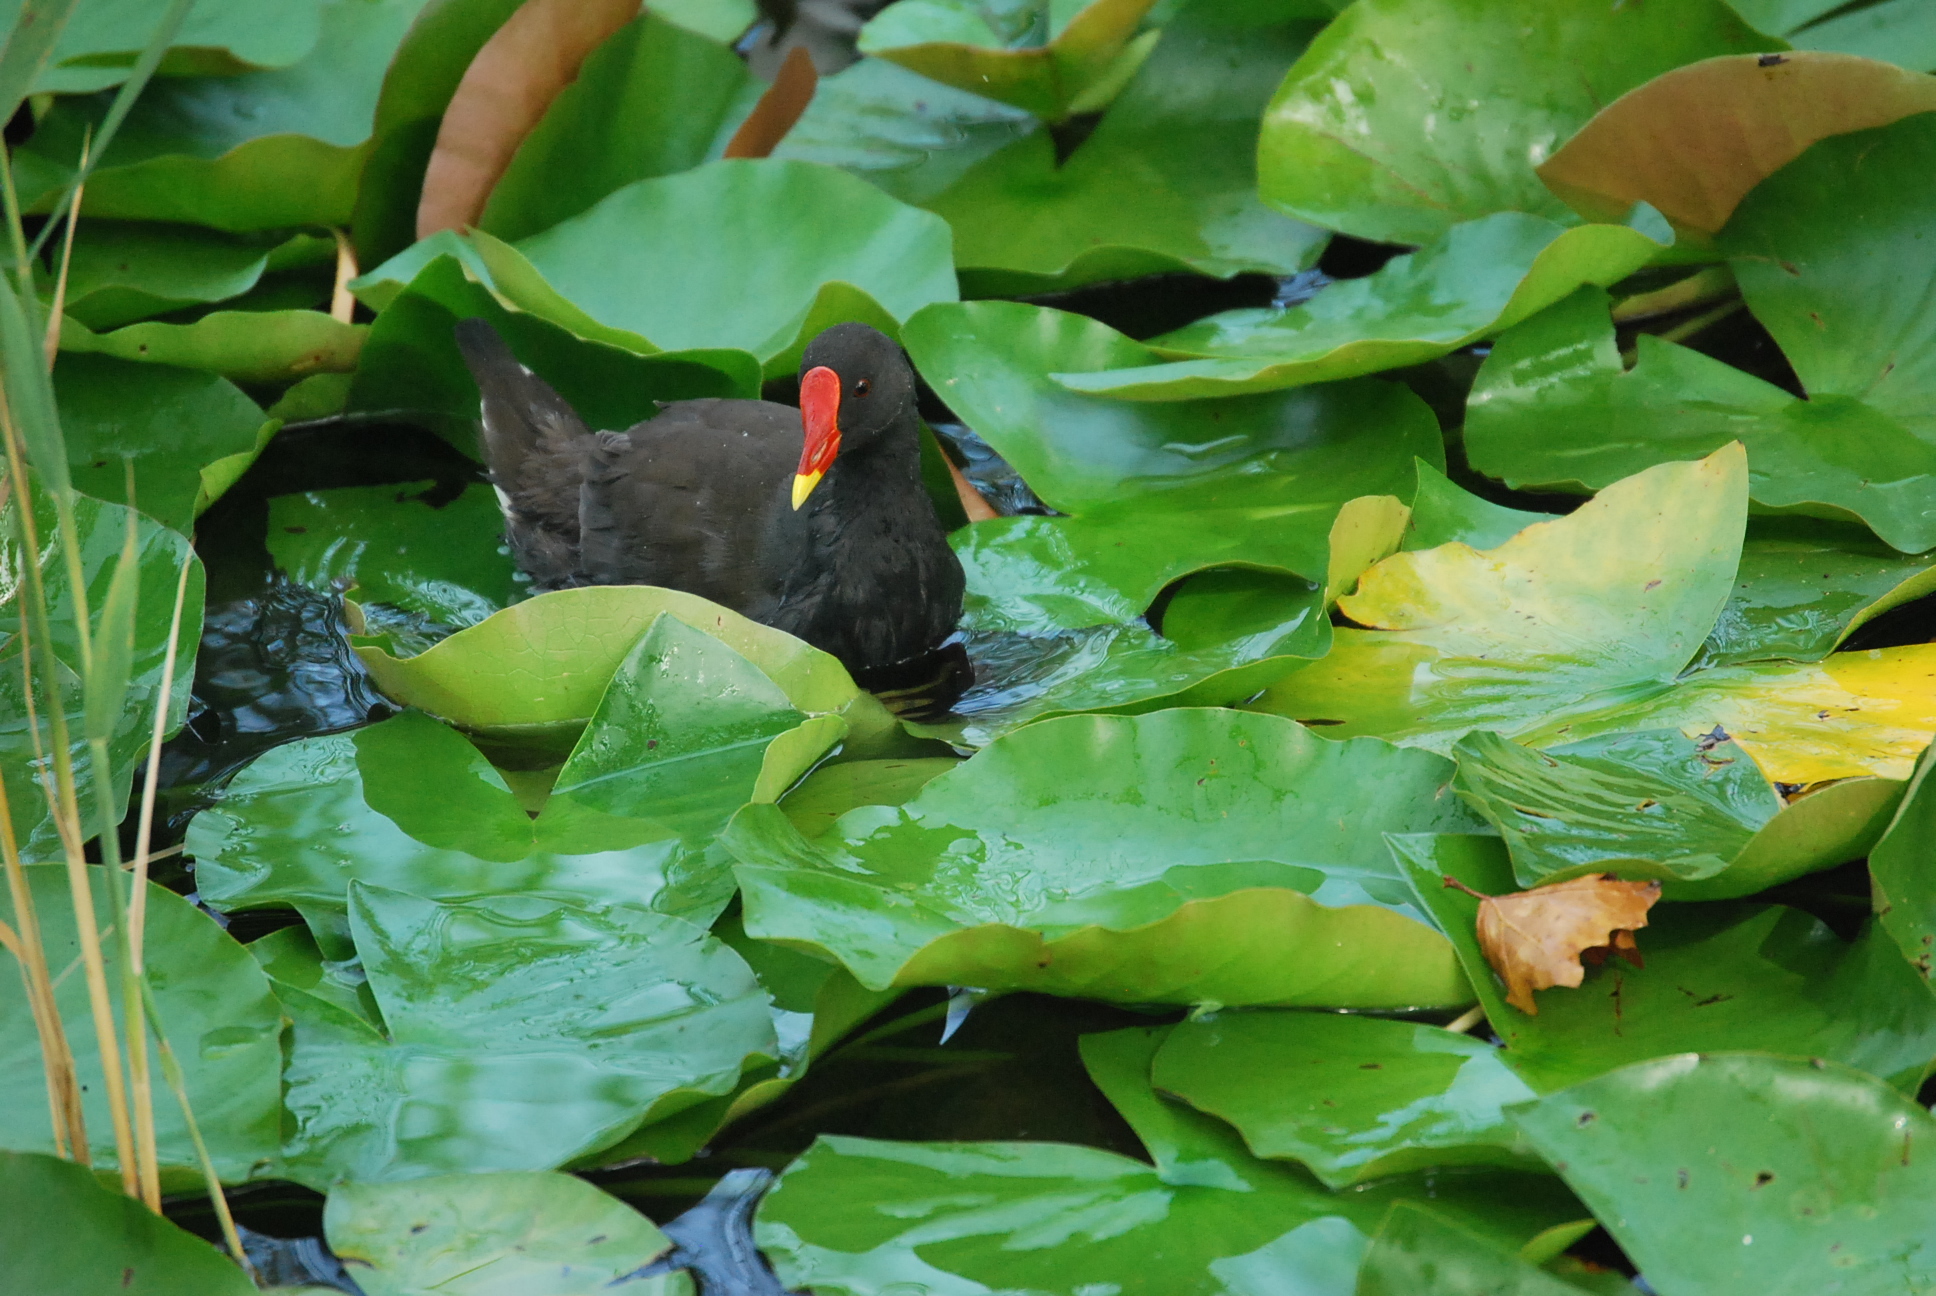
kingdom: Animalia
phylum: Chordata
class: Aves
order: Gruiformes
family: Rallidae
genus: Gallinula
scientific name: Gallinula chloropus
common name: Common moorhen
